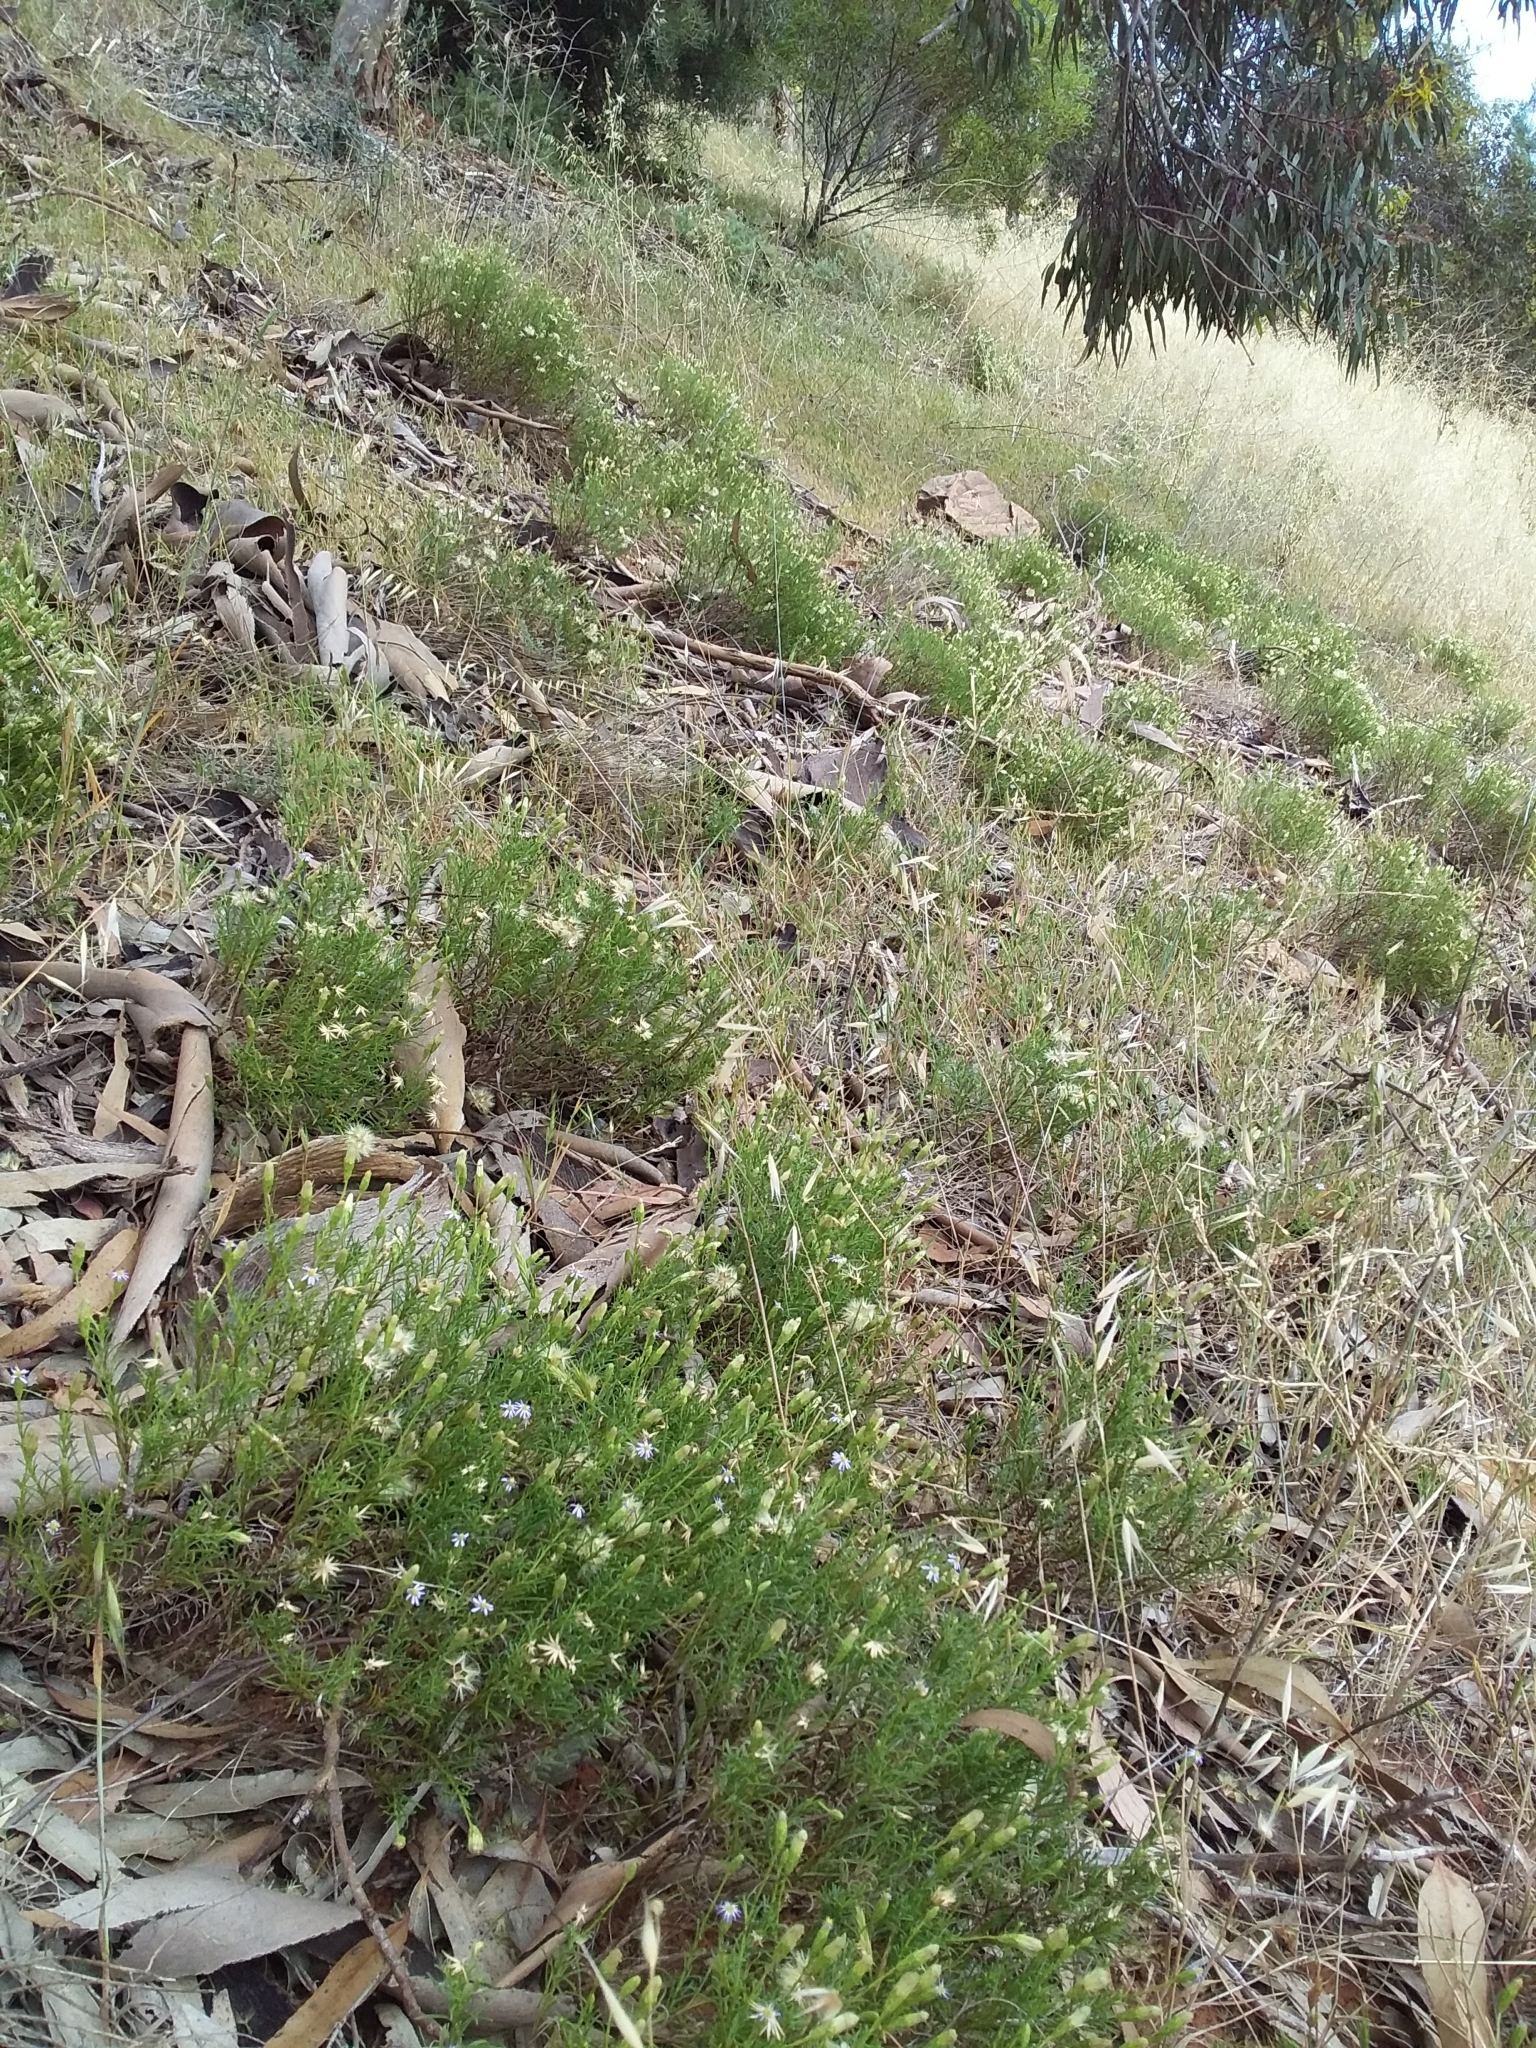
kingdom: Plantae
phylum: Tracheophyta
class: Magnoliopsida
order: Asterales
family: Asteraceae
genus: Vittadinia
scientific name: Vittadinia blackii
